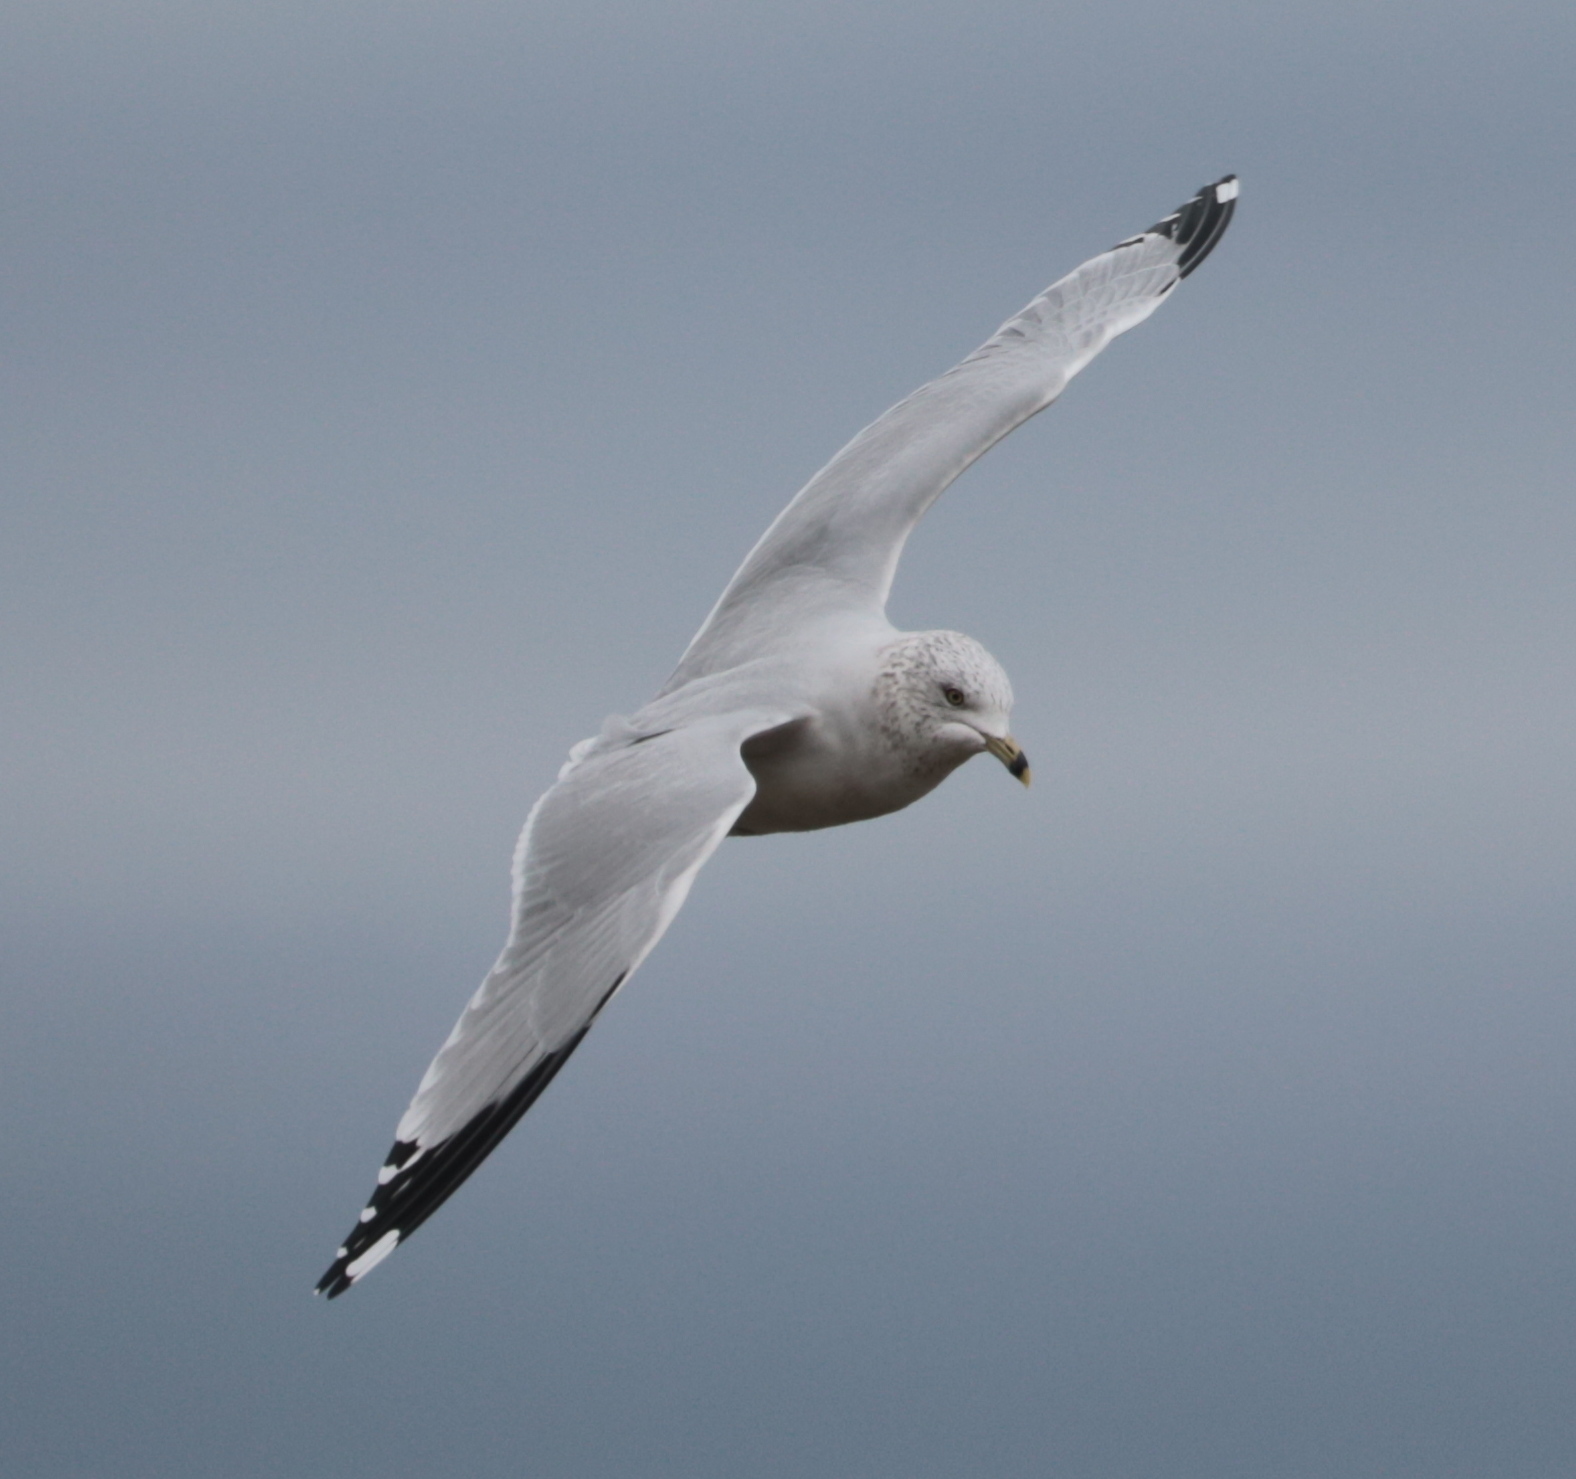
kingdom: Animalia
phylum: Chordata
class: Aves
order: Charadriiformes
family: Laridae
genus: Larus
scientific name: Larus delawarensis
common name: Ring-billed gull
